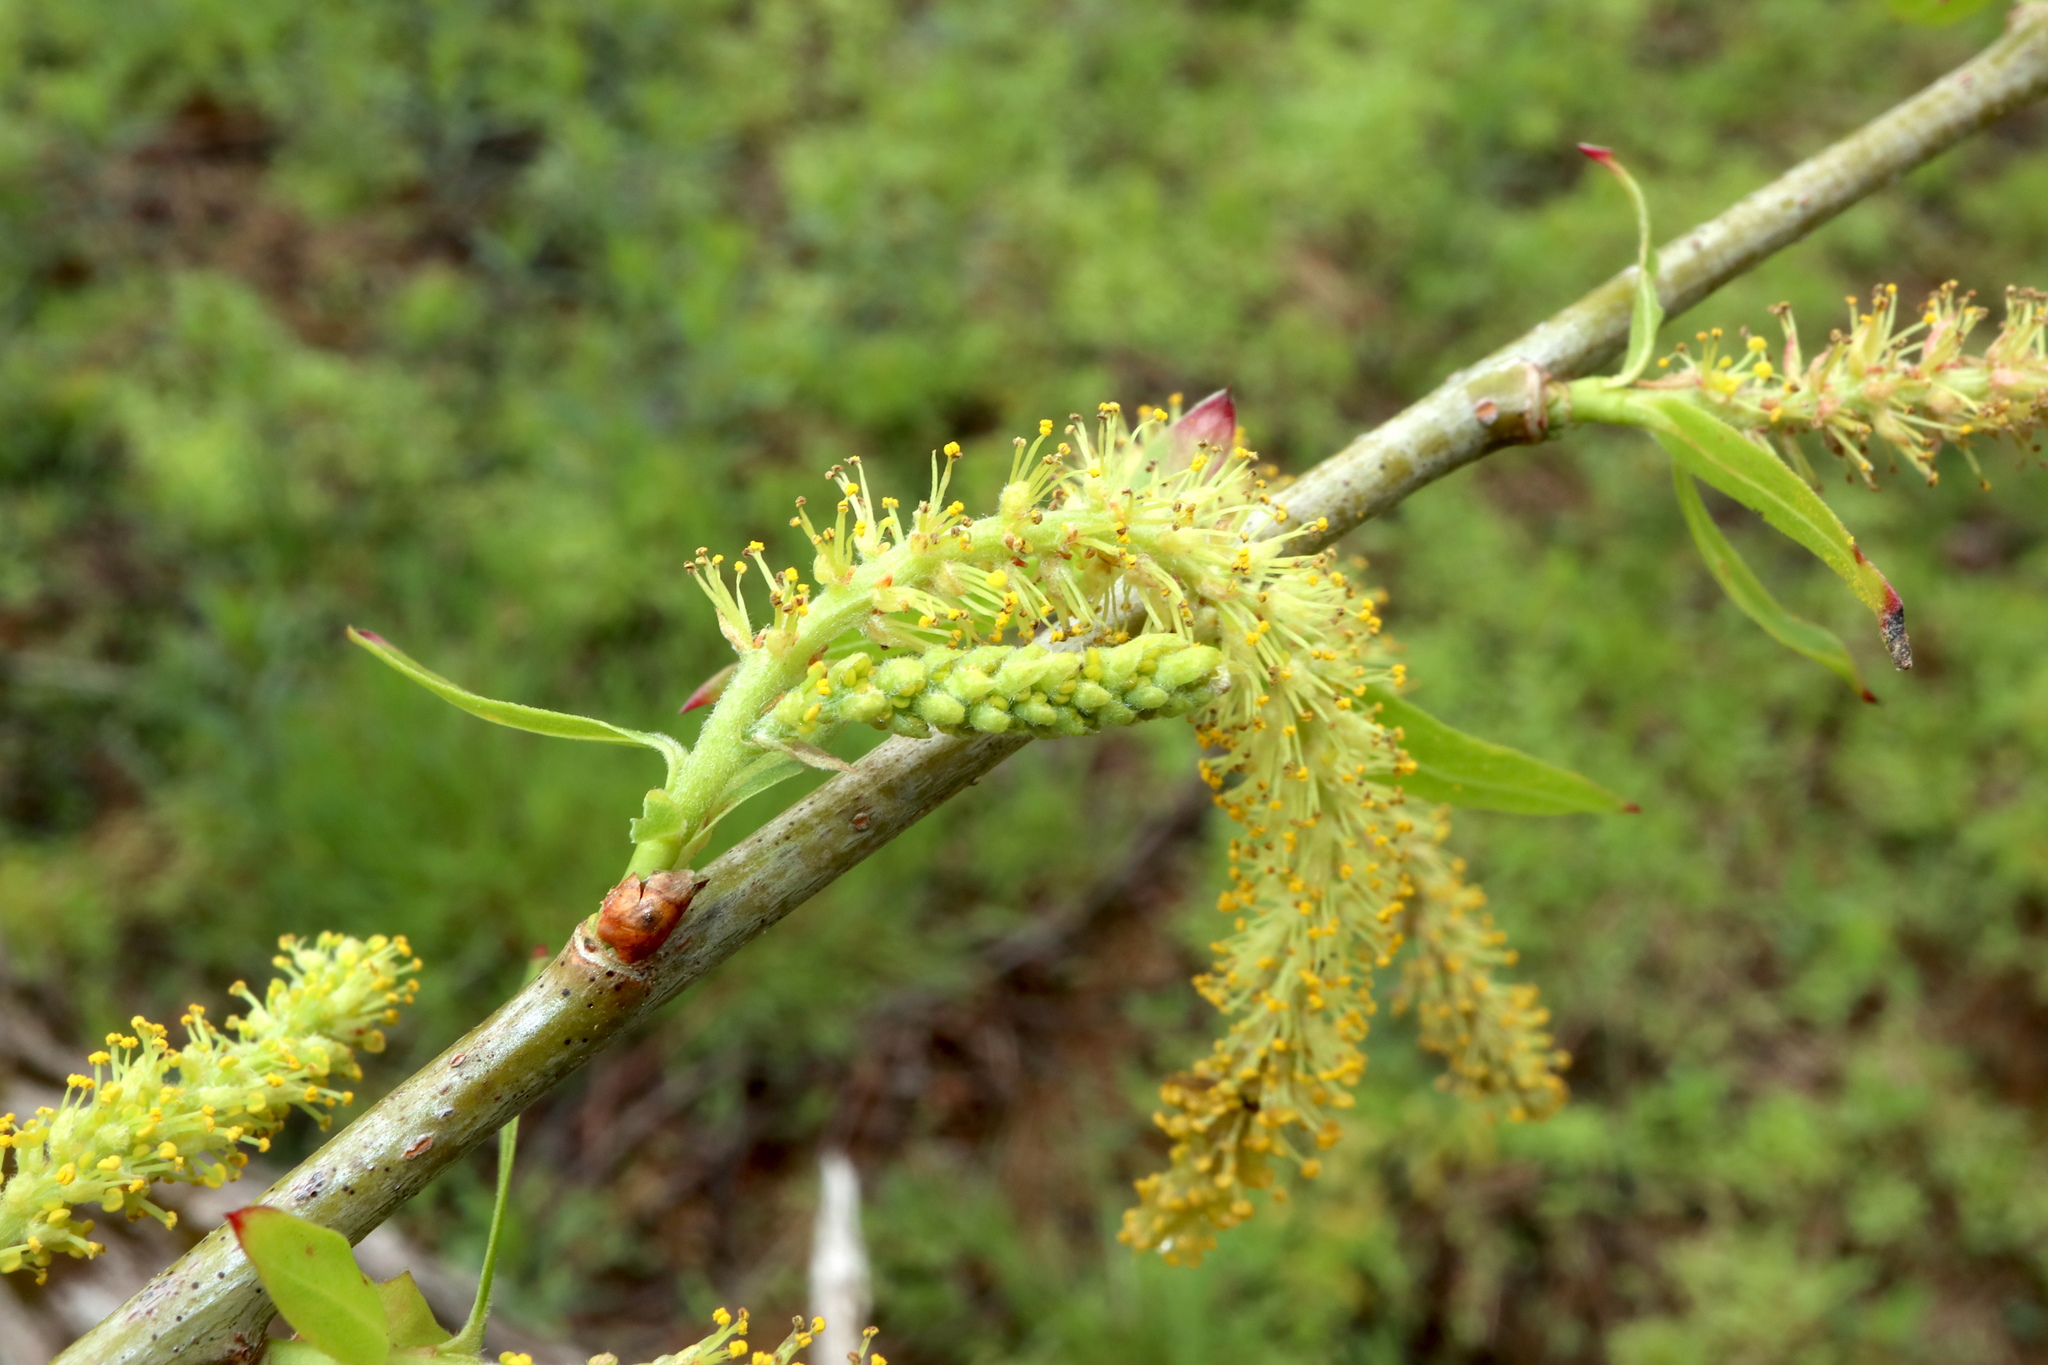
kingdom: Plantae
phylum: Tracheophyta
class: Magnoliopsida
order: Malpighiales
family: Salicaceae
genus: Salix
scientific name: Salix nigra
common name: Black willow
